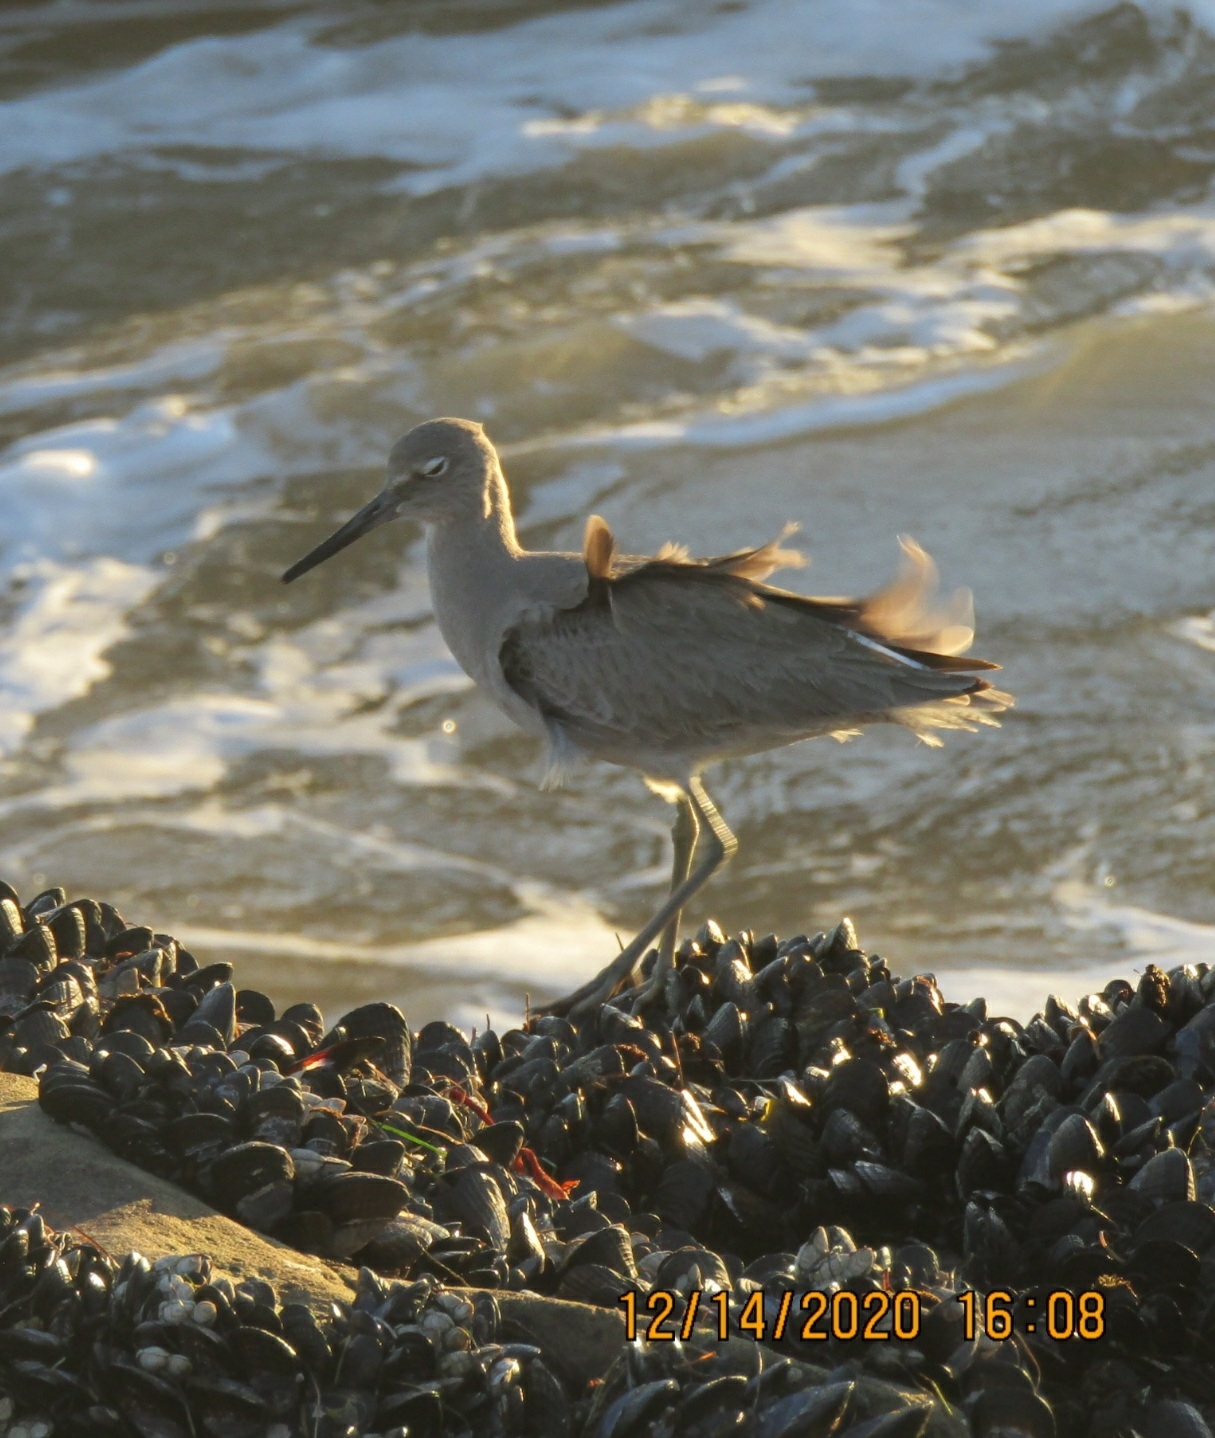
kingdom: Animalia
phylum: Chordata
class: Aves
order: Charadriiformes
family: Scolopacidae
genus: Tringa
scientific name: Tringa semipalmata
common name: Willet
